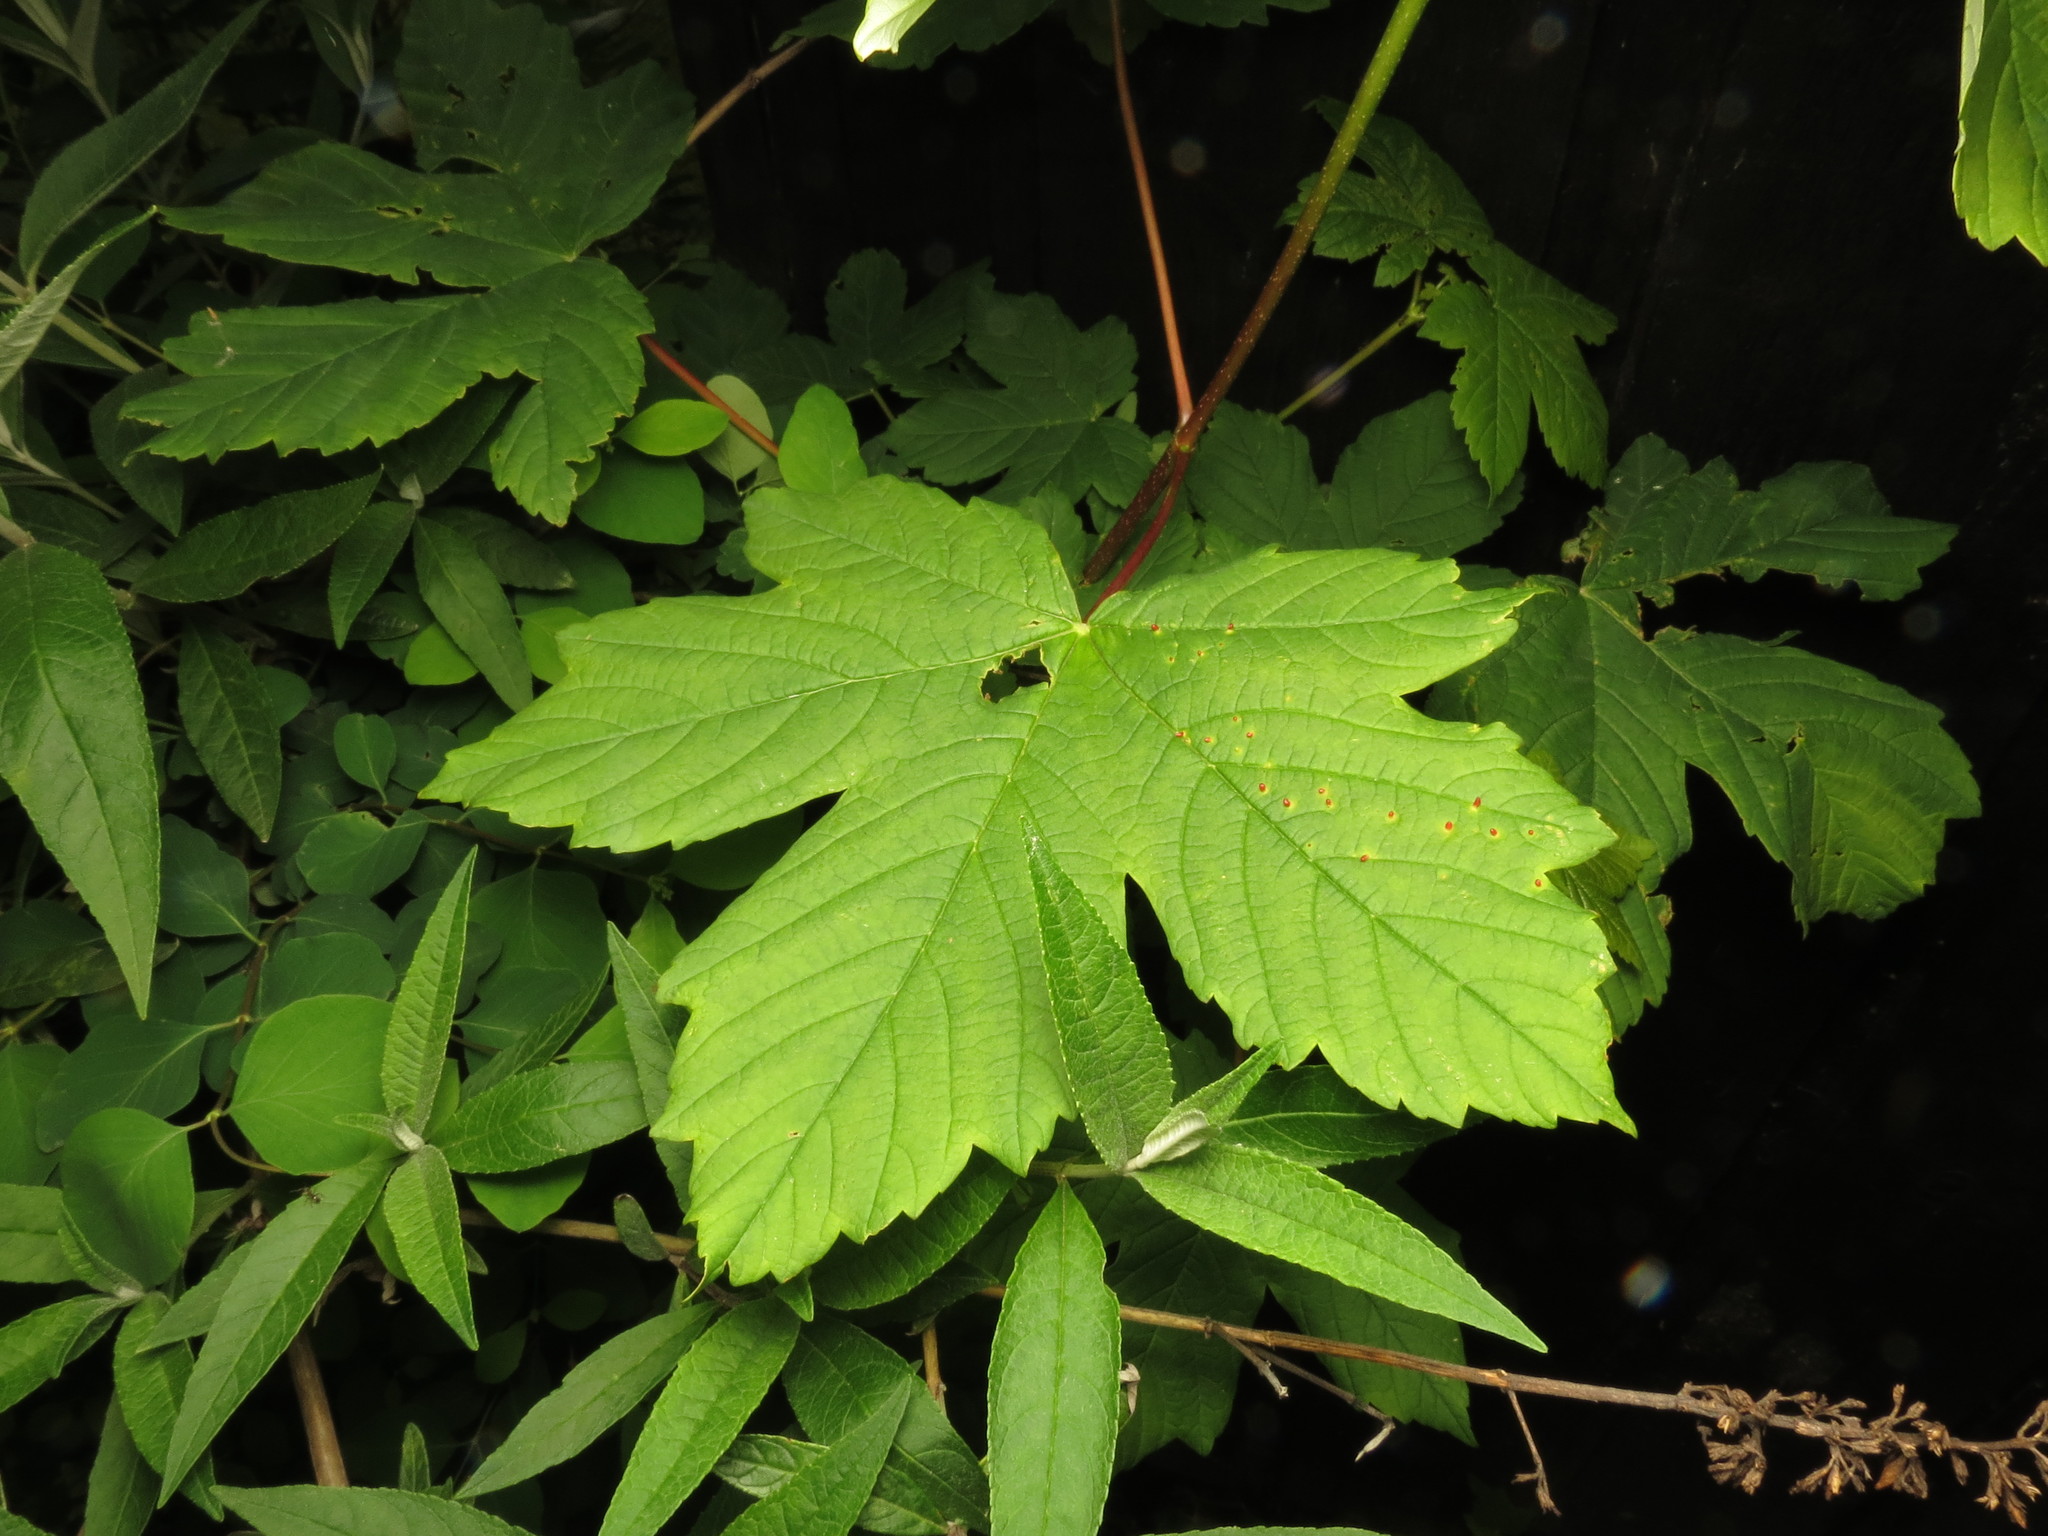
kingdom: Animalia
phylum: Arthropoda
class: Arachnida
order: Trombidiformes
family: Eriophyidae
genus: Aceria
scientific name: Aceria macrorhynchus
